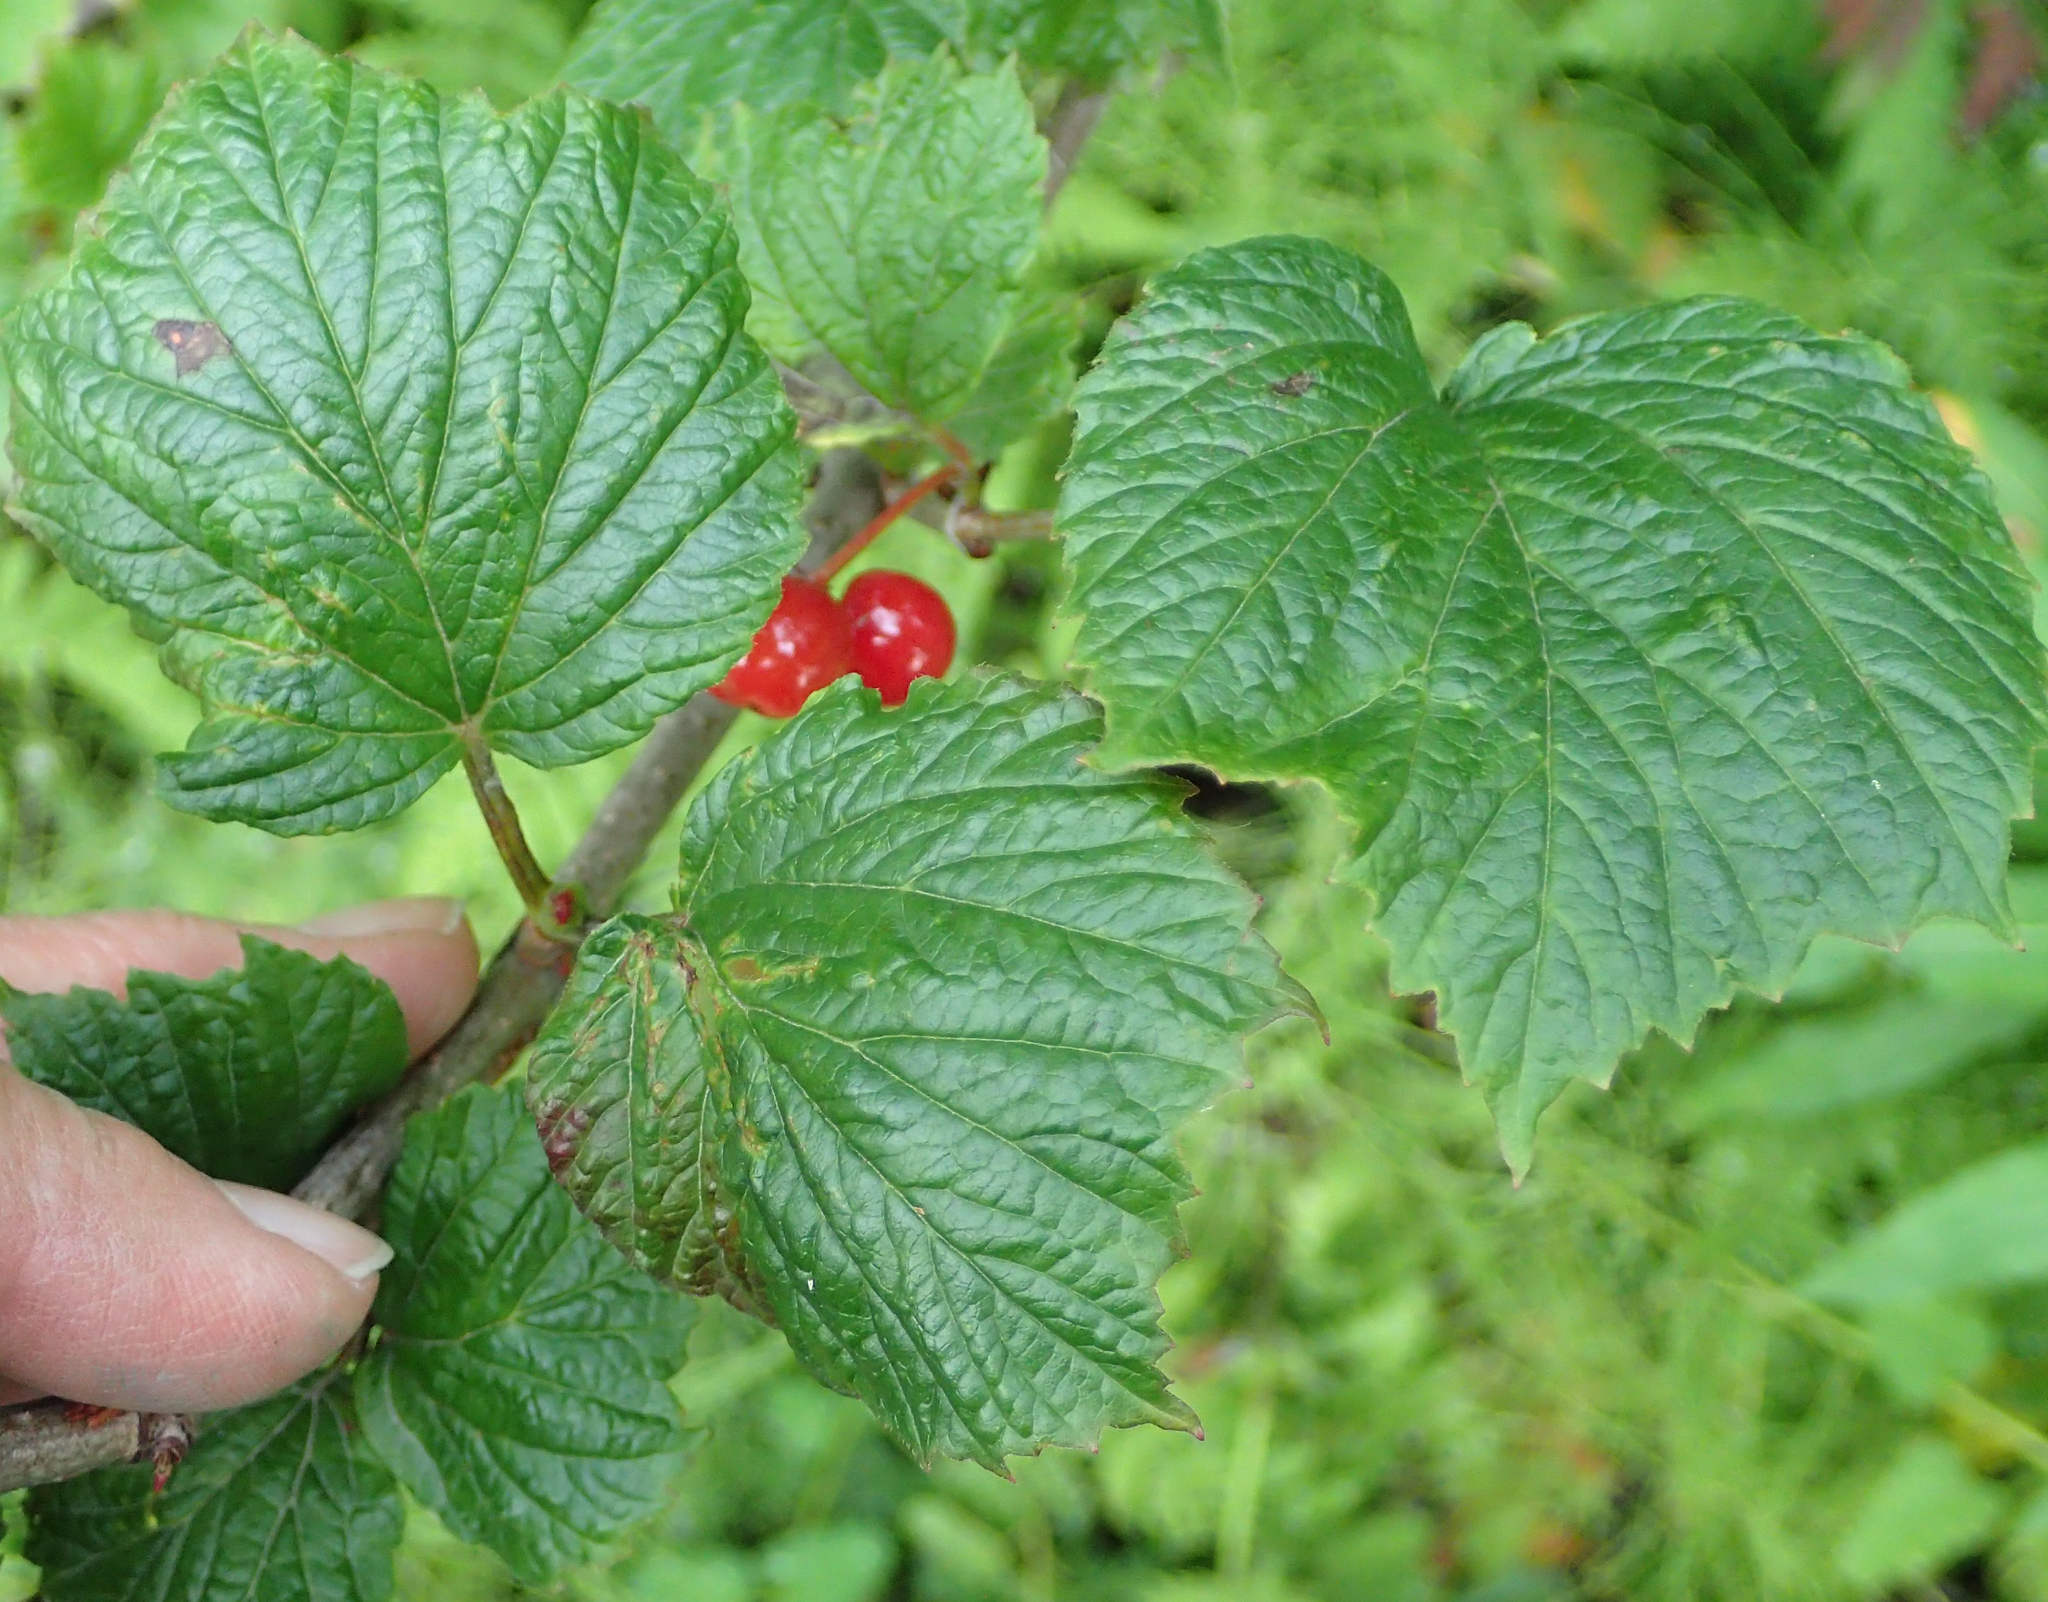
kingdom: Plantae
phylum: Tracheophyta
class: Magnoliopsida
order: Dipsacales
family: Viburnaceae
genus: Viburnum
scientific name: Viburnum edule
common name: Mooseberry
